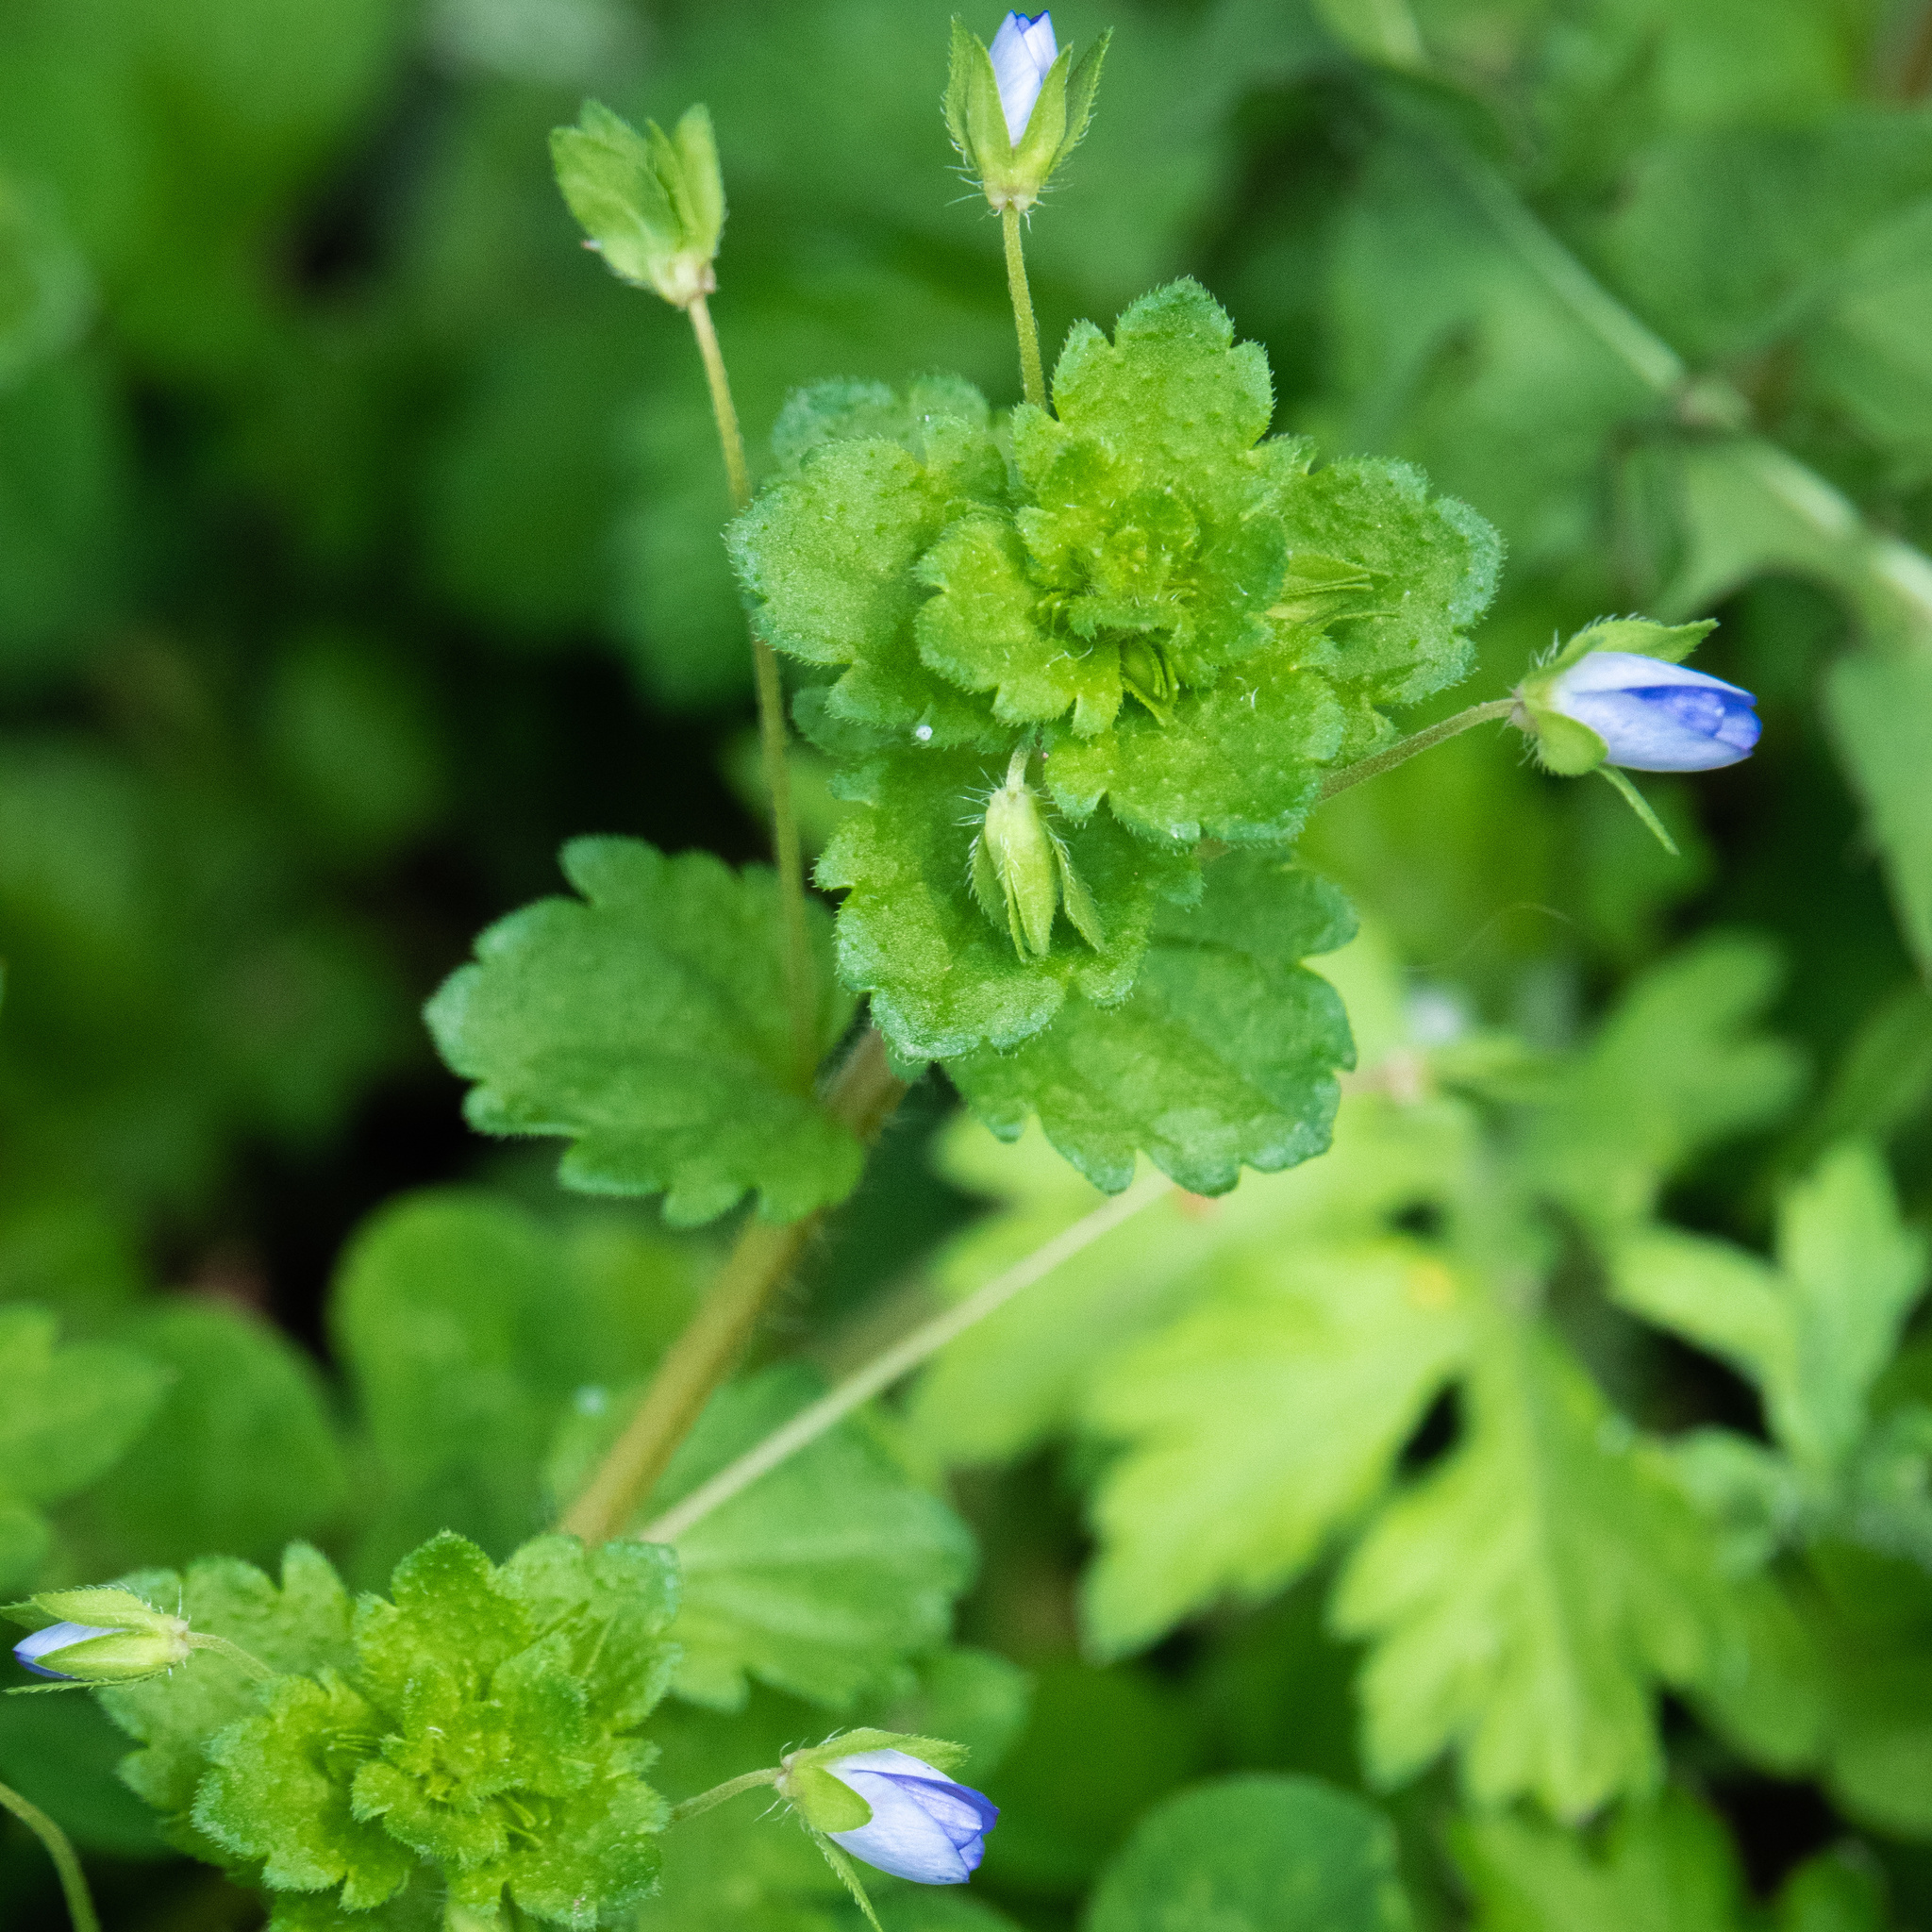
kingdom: Plantae
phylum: Tracheophyta
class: Magnoliopsida
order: Lamiales
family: Plantaginaceae
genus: Veronica
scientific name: Veronica persica
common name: Common field-speedwell
